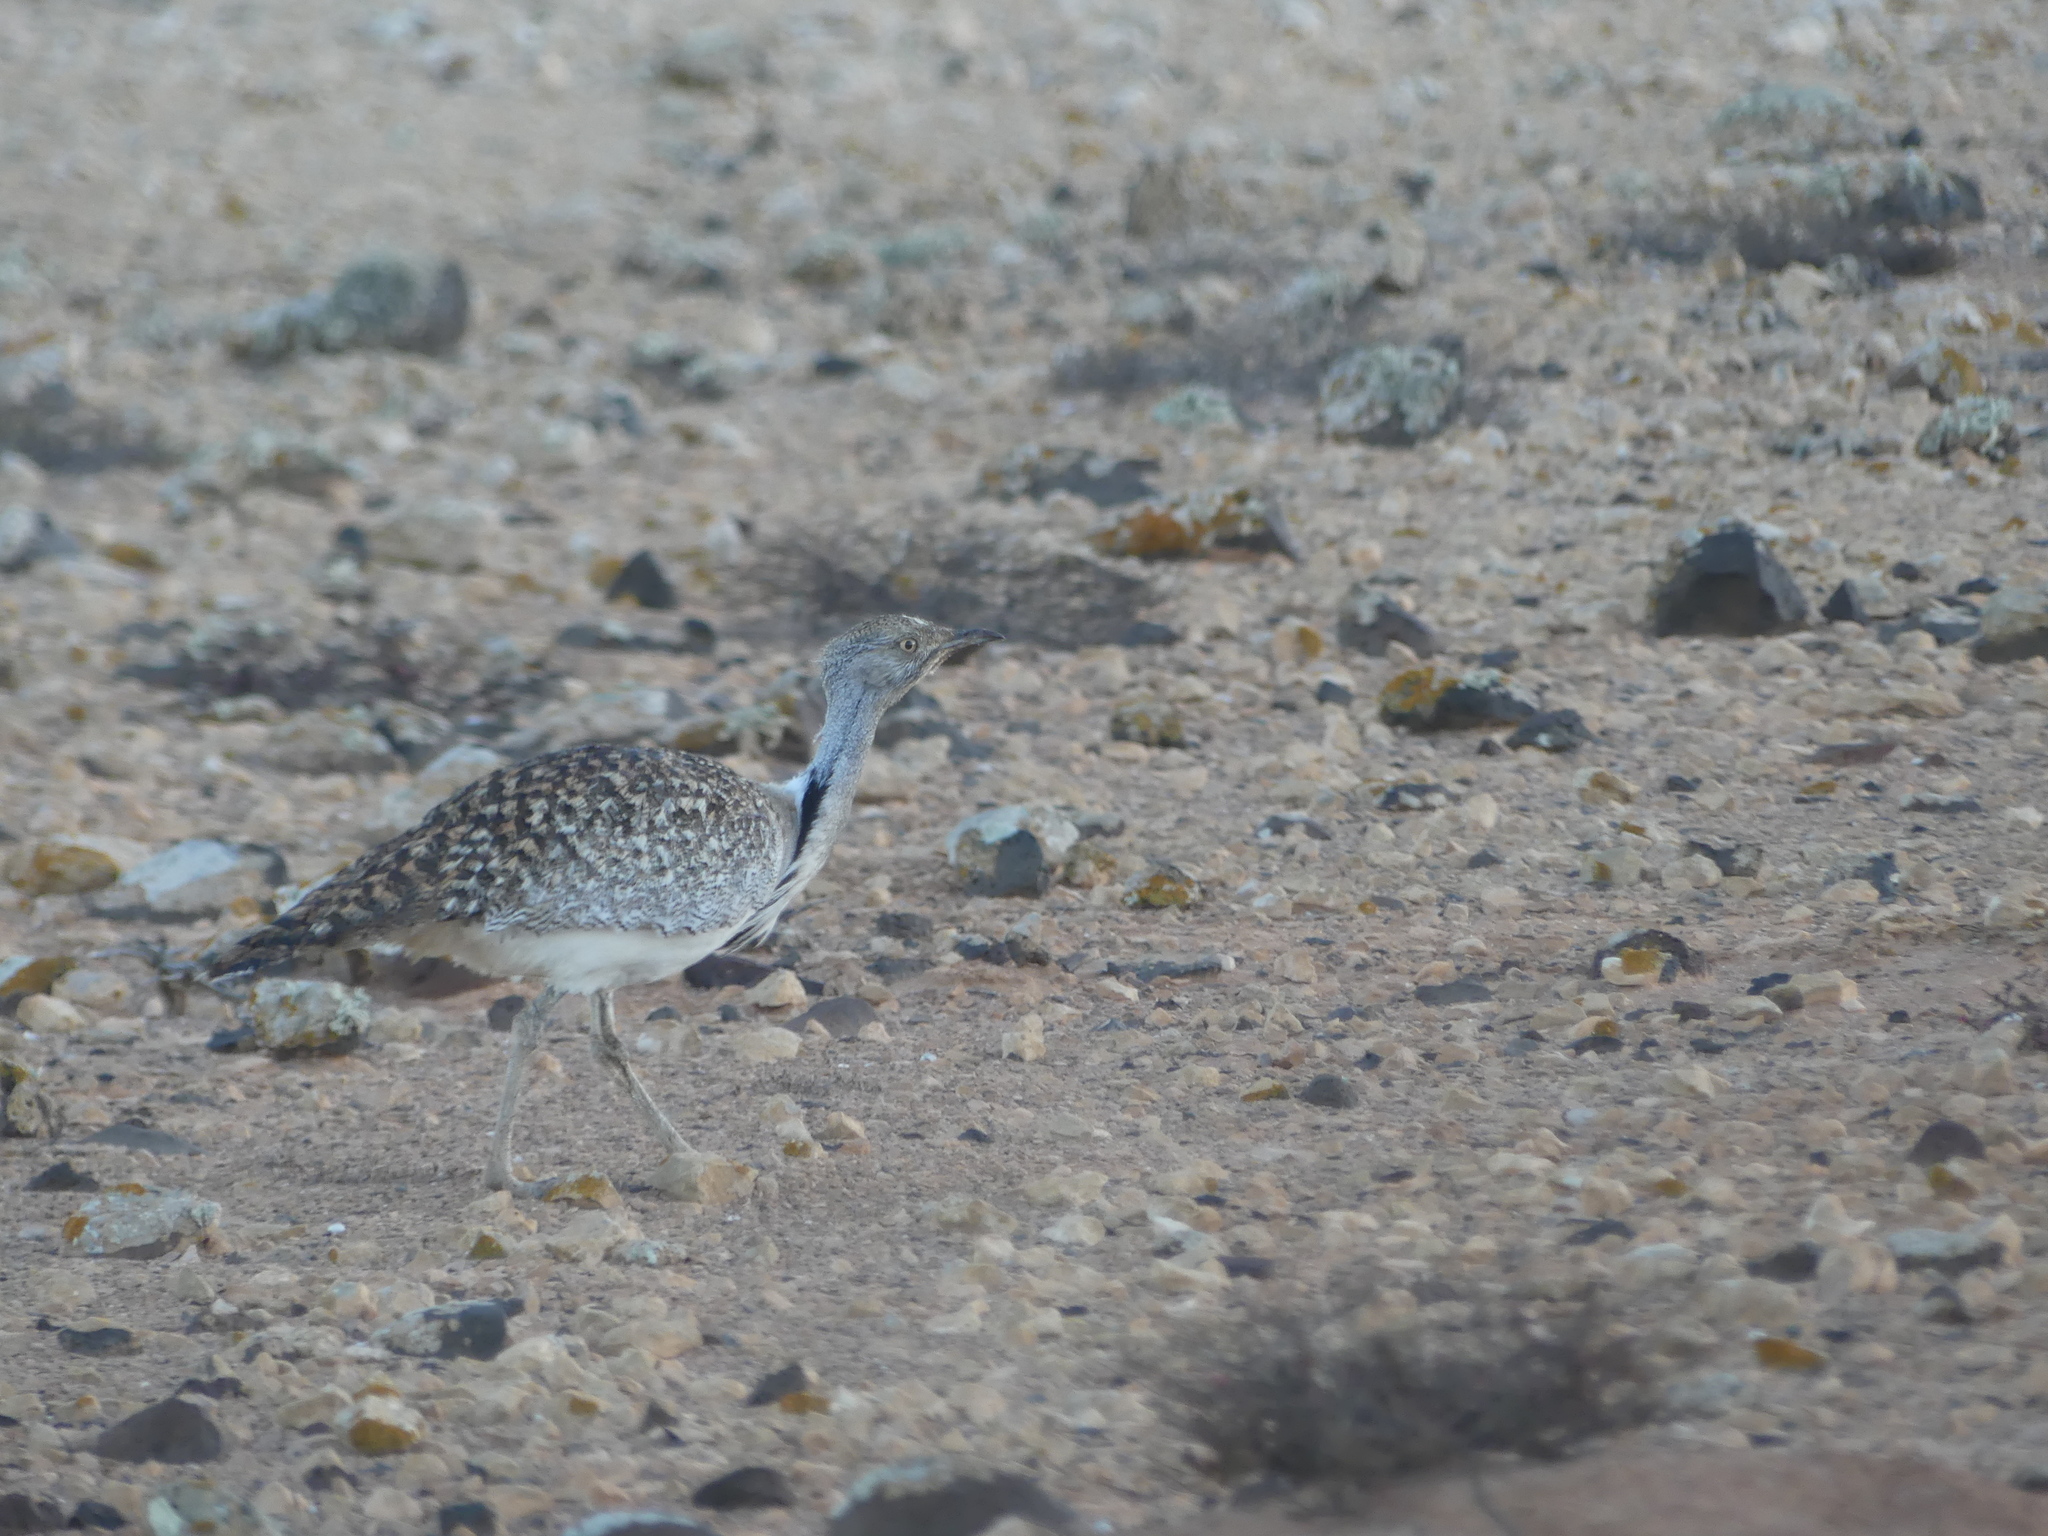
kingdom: Animalia
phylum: Chordata
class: Aves
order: Otidiformes
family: Otididae
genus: Chlamydotis
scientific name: Chlamydotis undulata
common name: Houbara bustard
